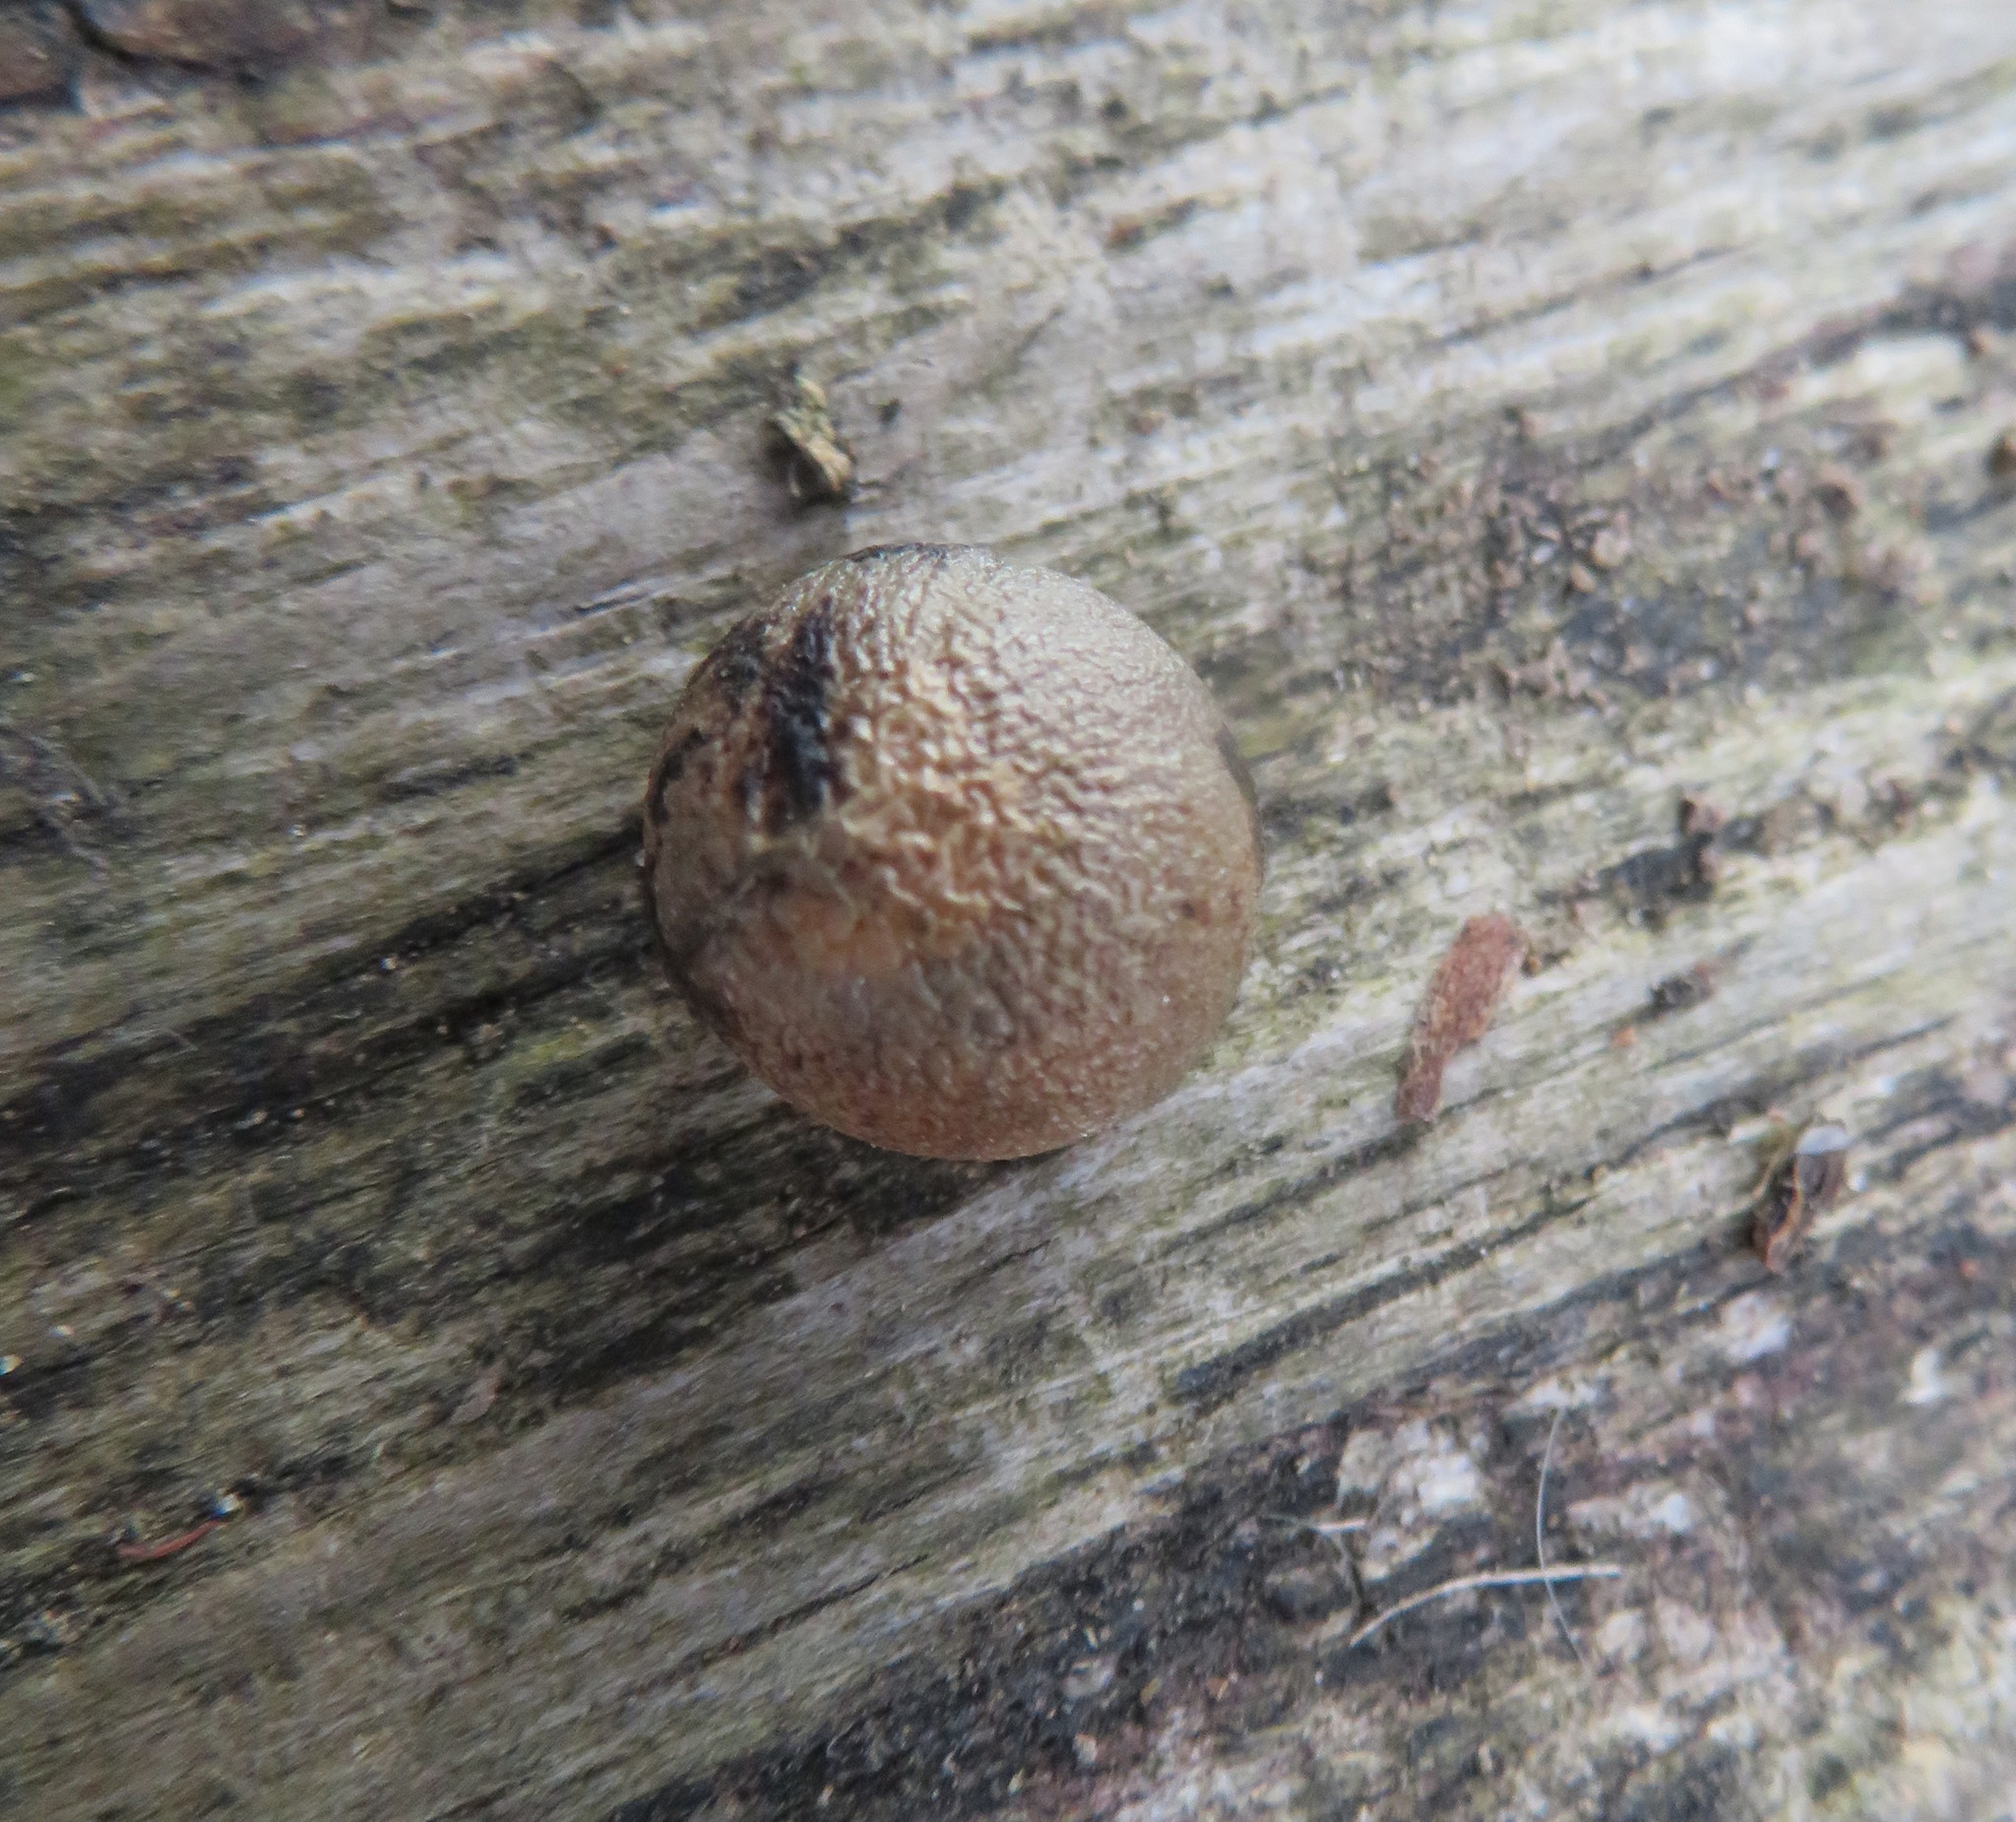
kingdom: Plantae
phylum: Tracheophyta
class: Liliopsida
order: Asparagales
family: Asparagaceae
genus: Dracaena
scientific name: Dracaena draco
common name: Canary island dragon tree
